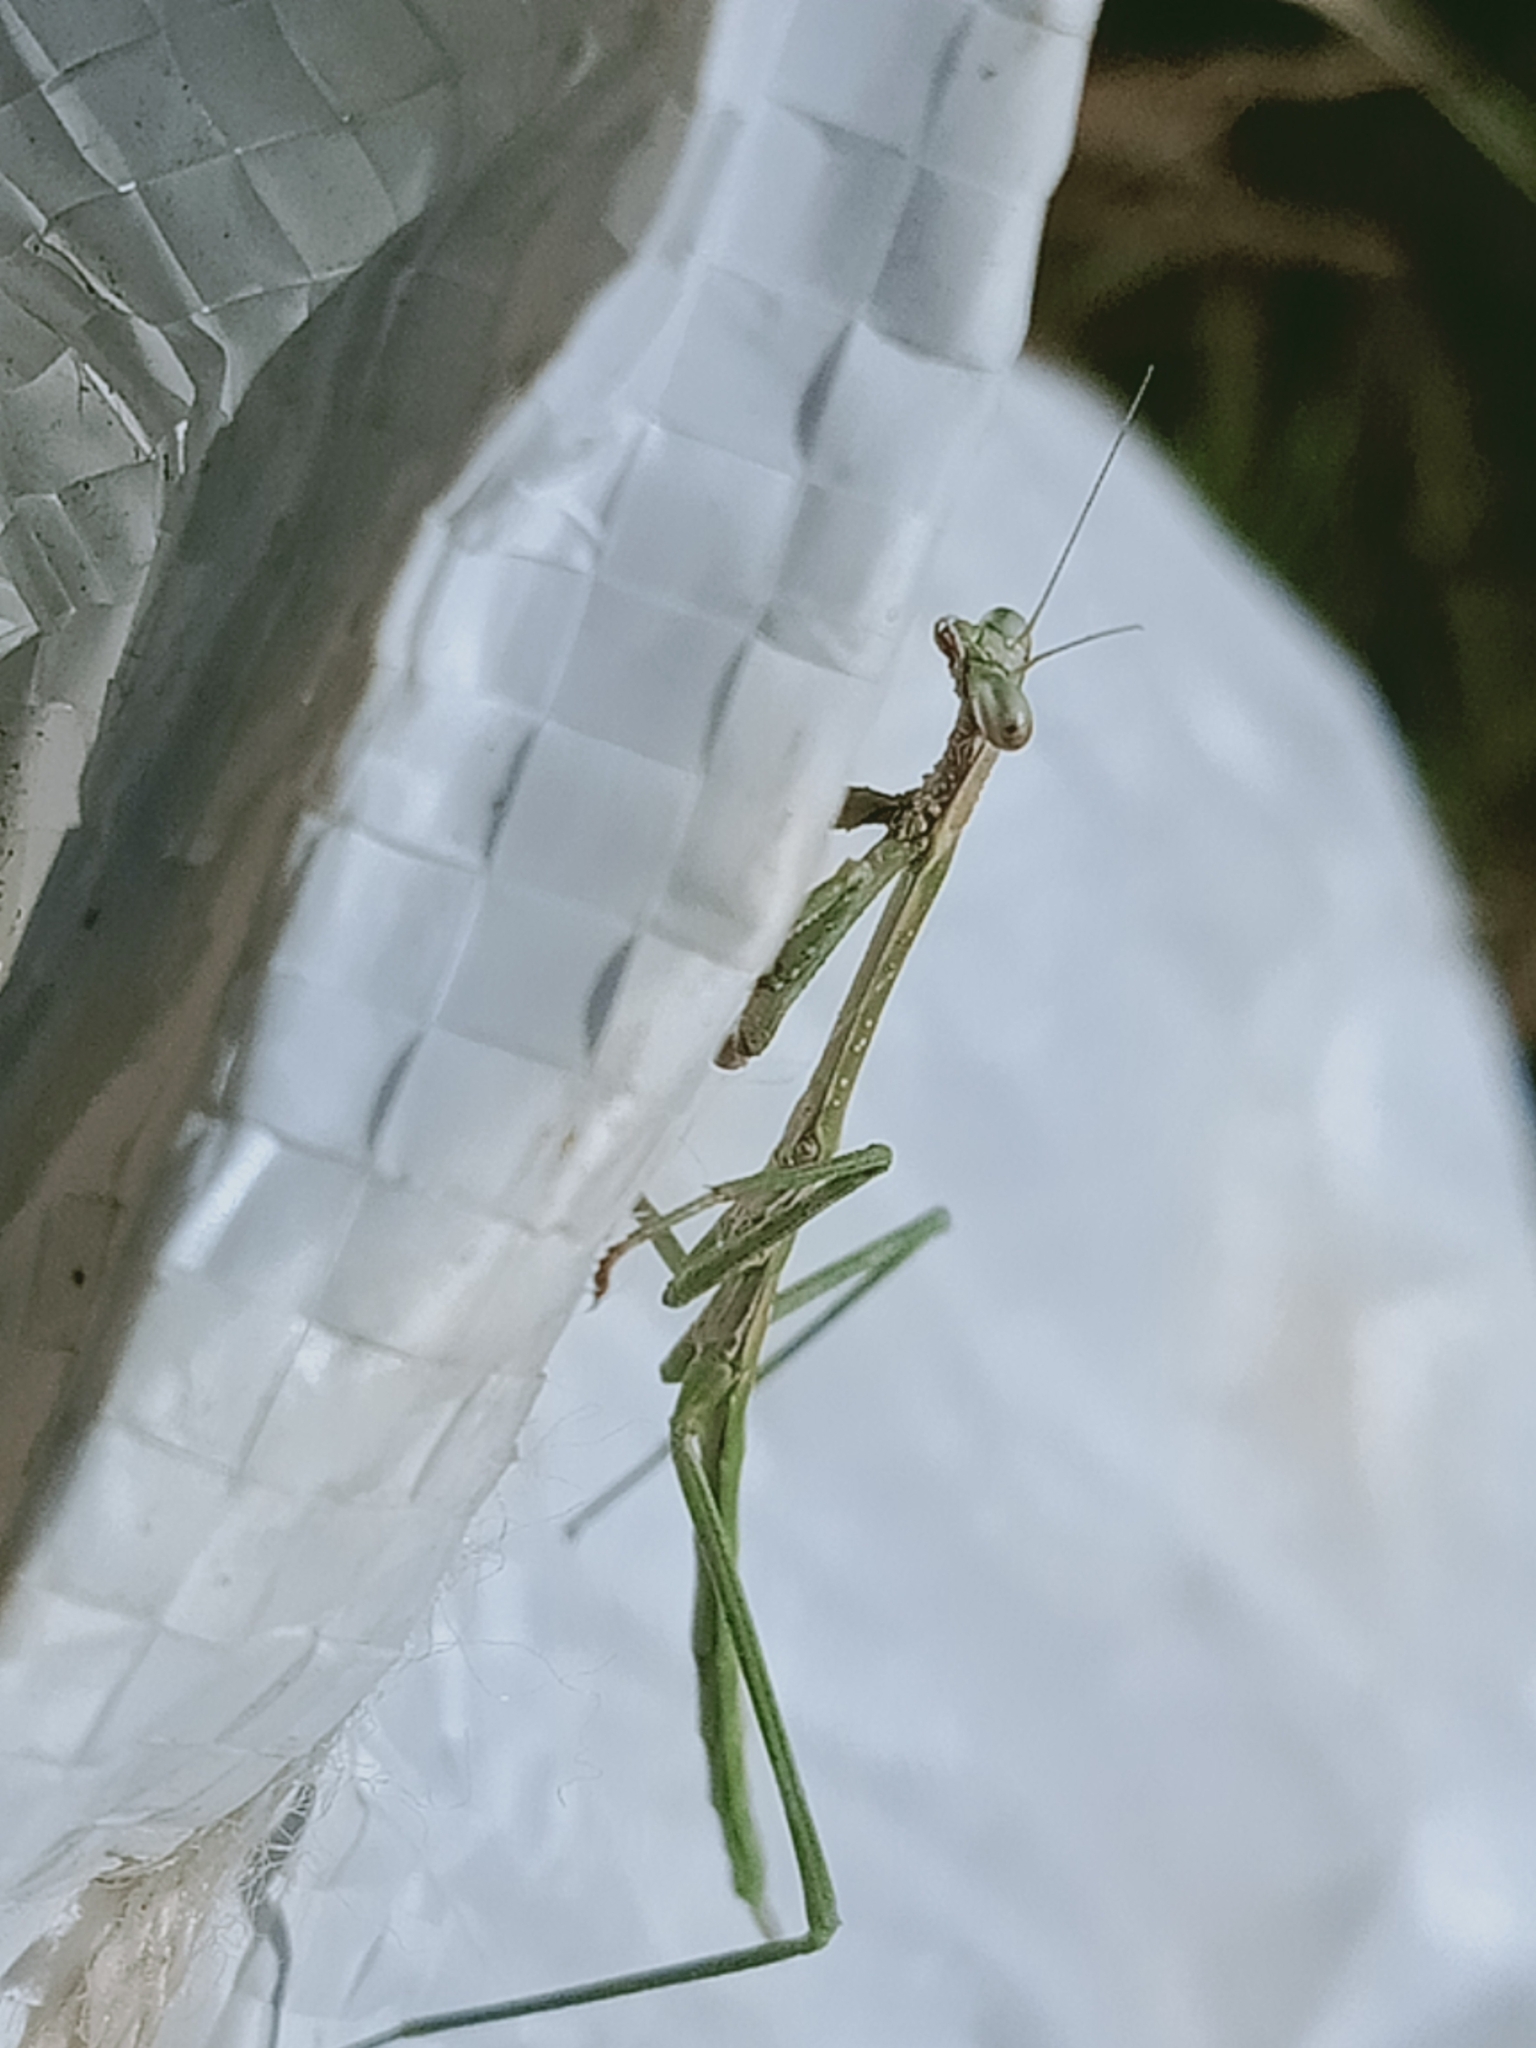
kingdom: Animalia
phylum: Arthropoda
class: Insecta
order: Mantodea
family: Mantidae
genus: Archimantis
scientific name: Archimantis latistyla
